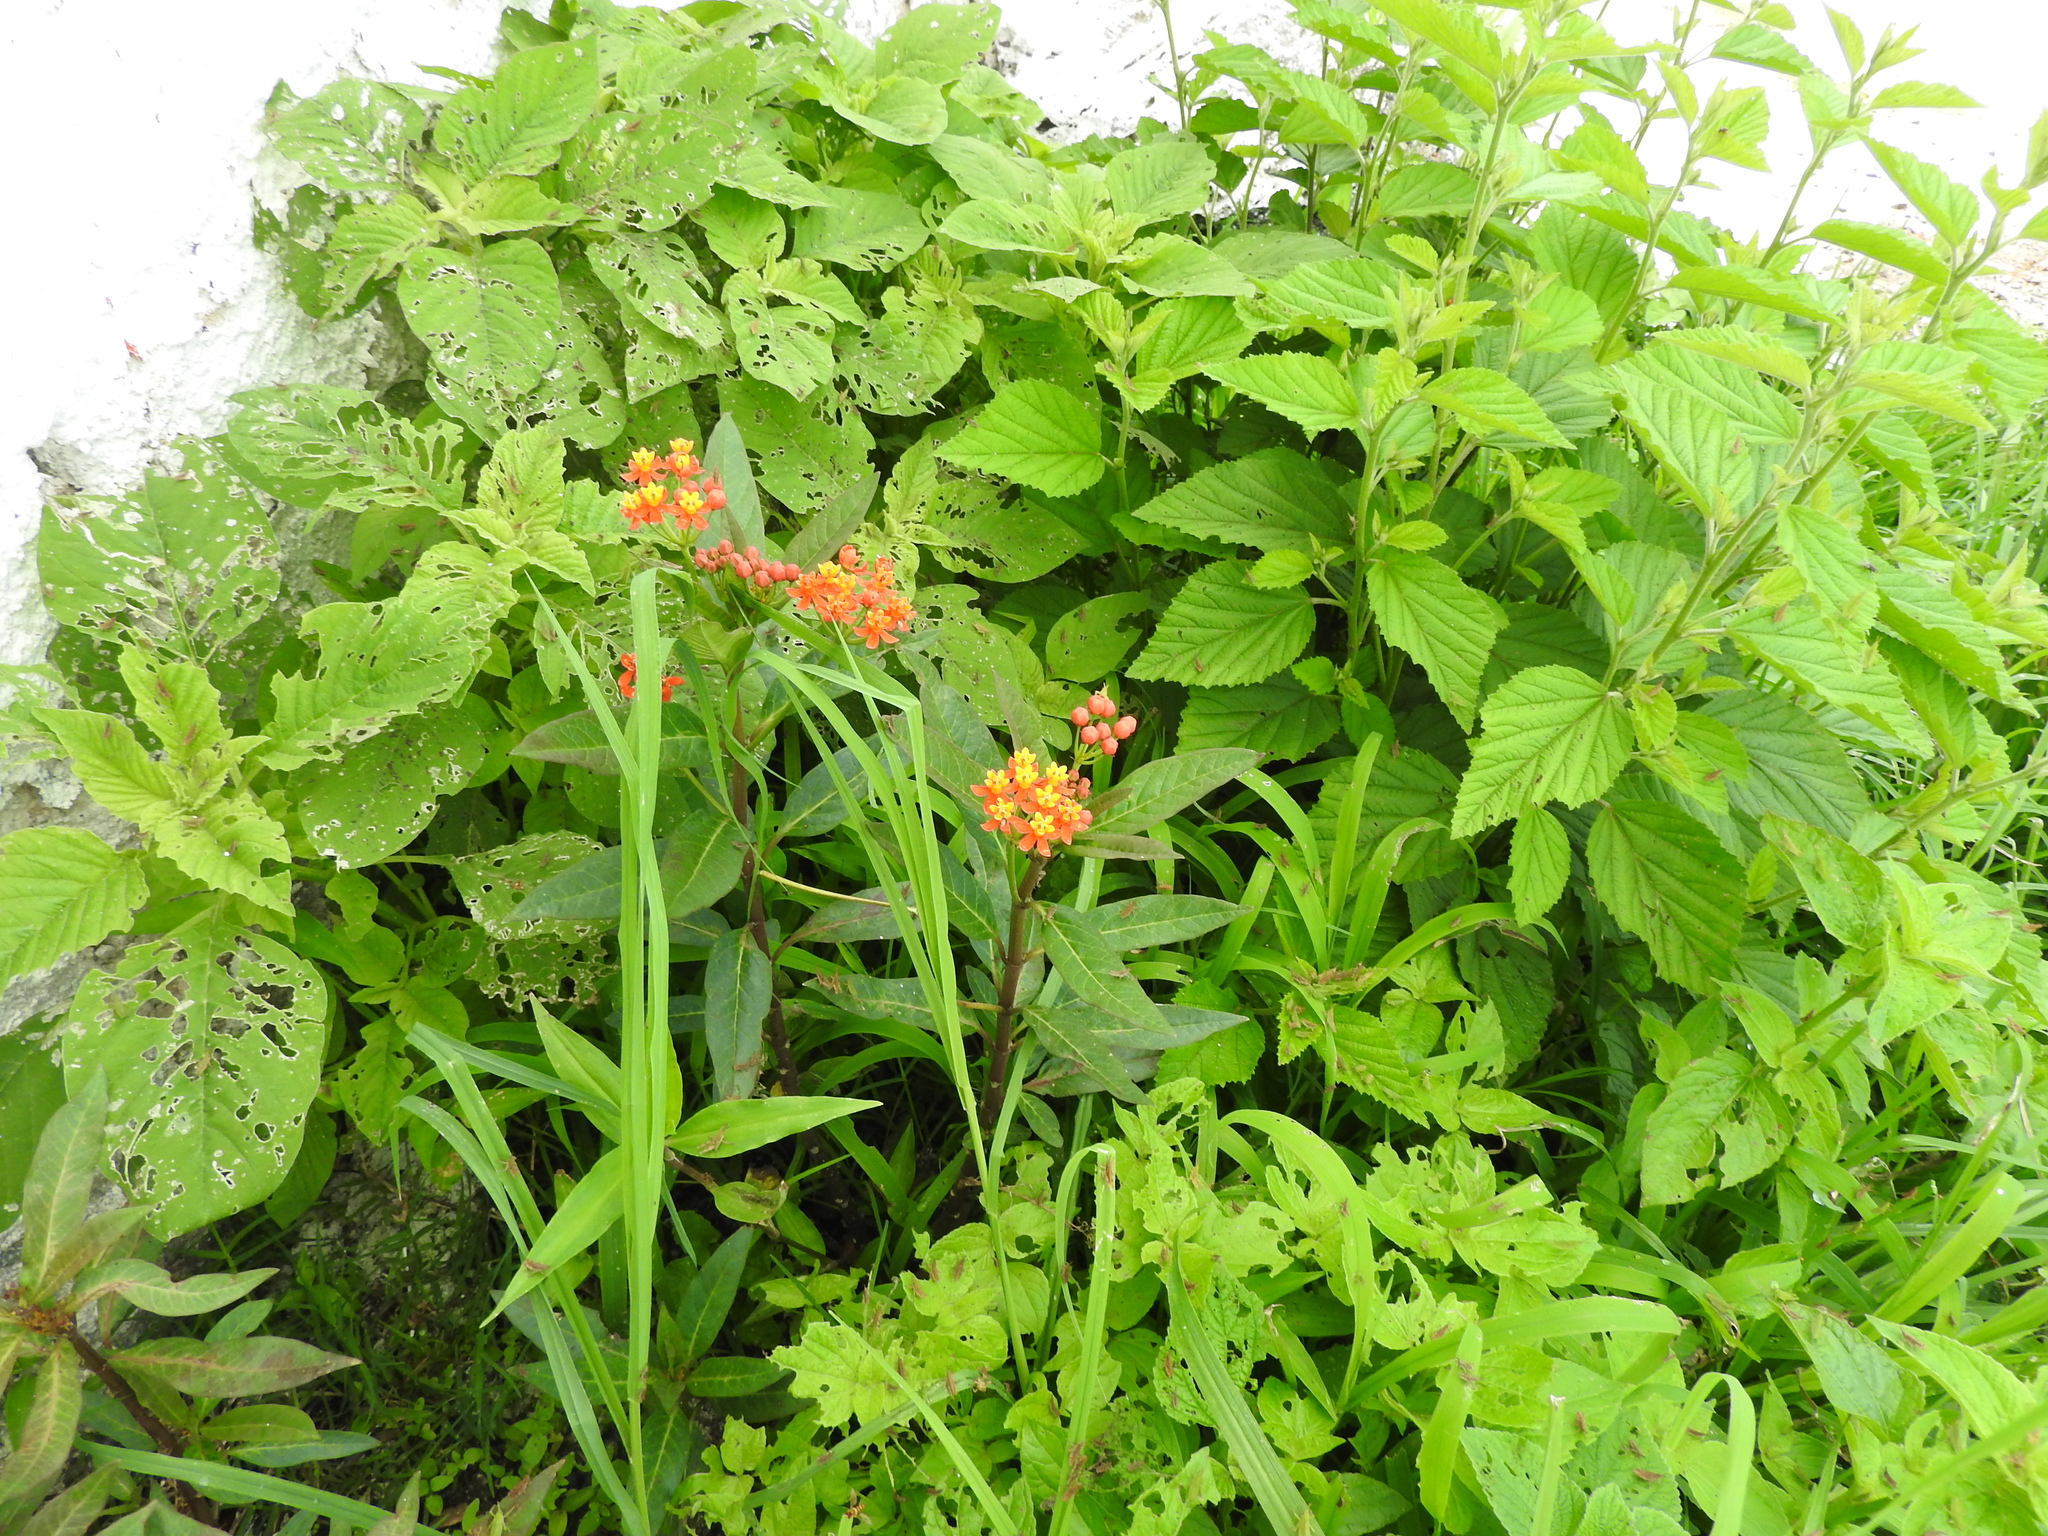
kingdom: Plantae
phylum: Tracheophyta
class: Magnoliopsida
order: Gentianales
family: Apocynaceae
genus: Asclepias
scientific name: Asclepias curassavica
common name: Bloodflower
